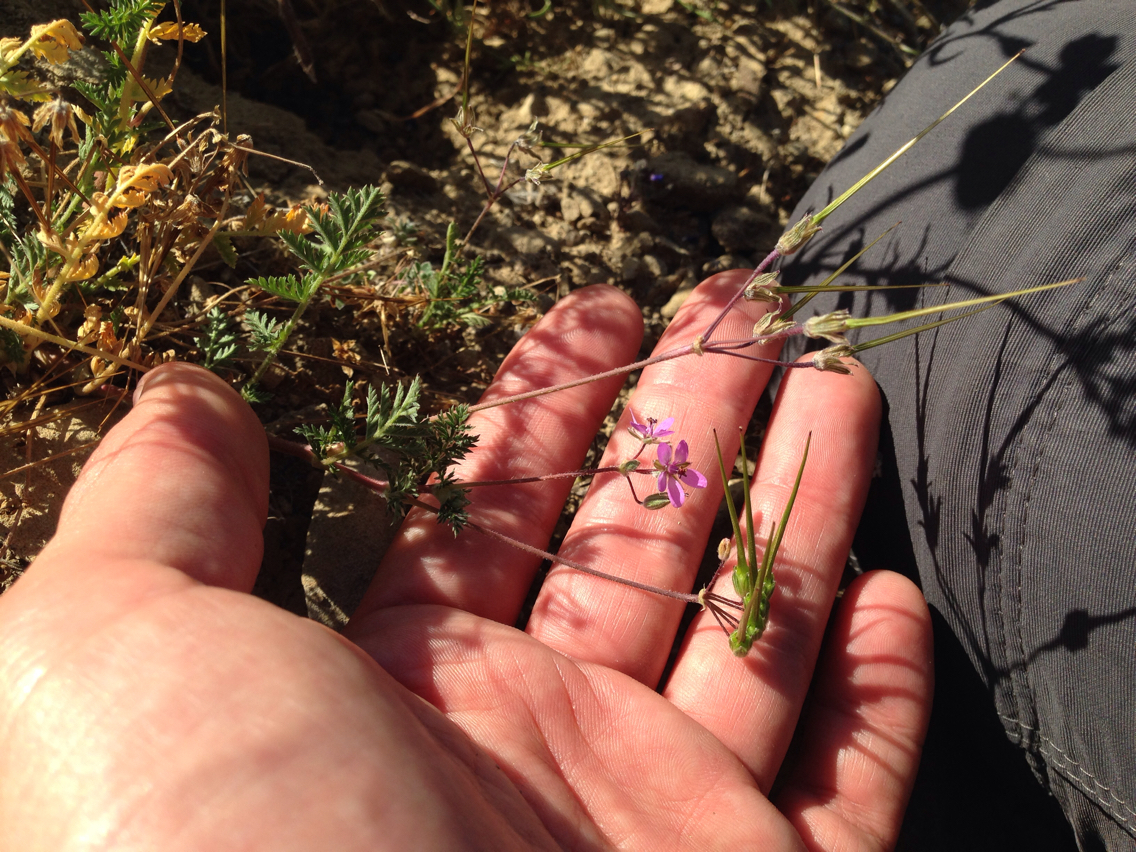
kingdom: Plantae
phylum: Tracheophyta
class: Magnoliopsida
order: Geraniales
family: Geraniaceae
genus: Erodium
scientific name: Erodium cicutarium
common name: Common stork's-bill
